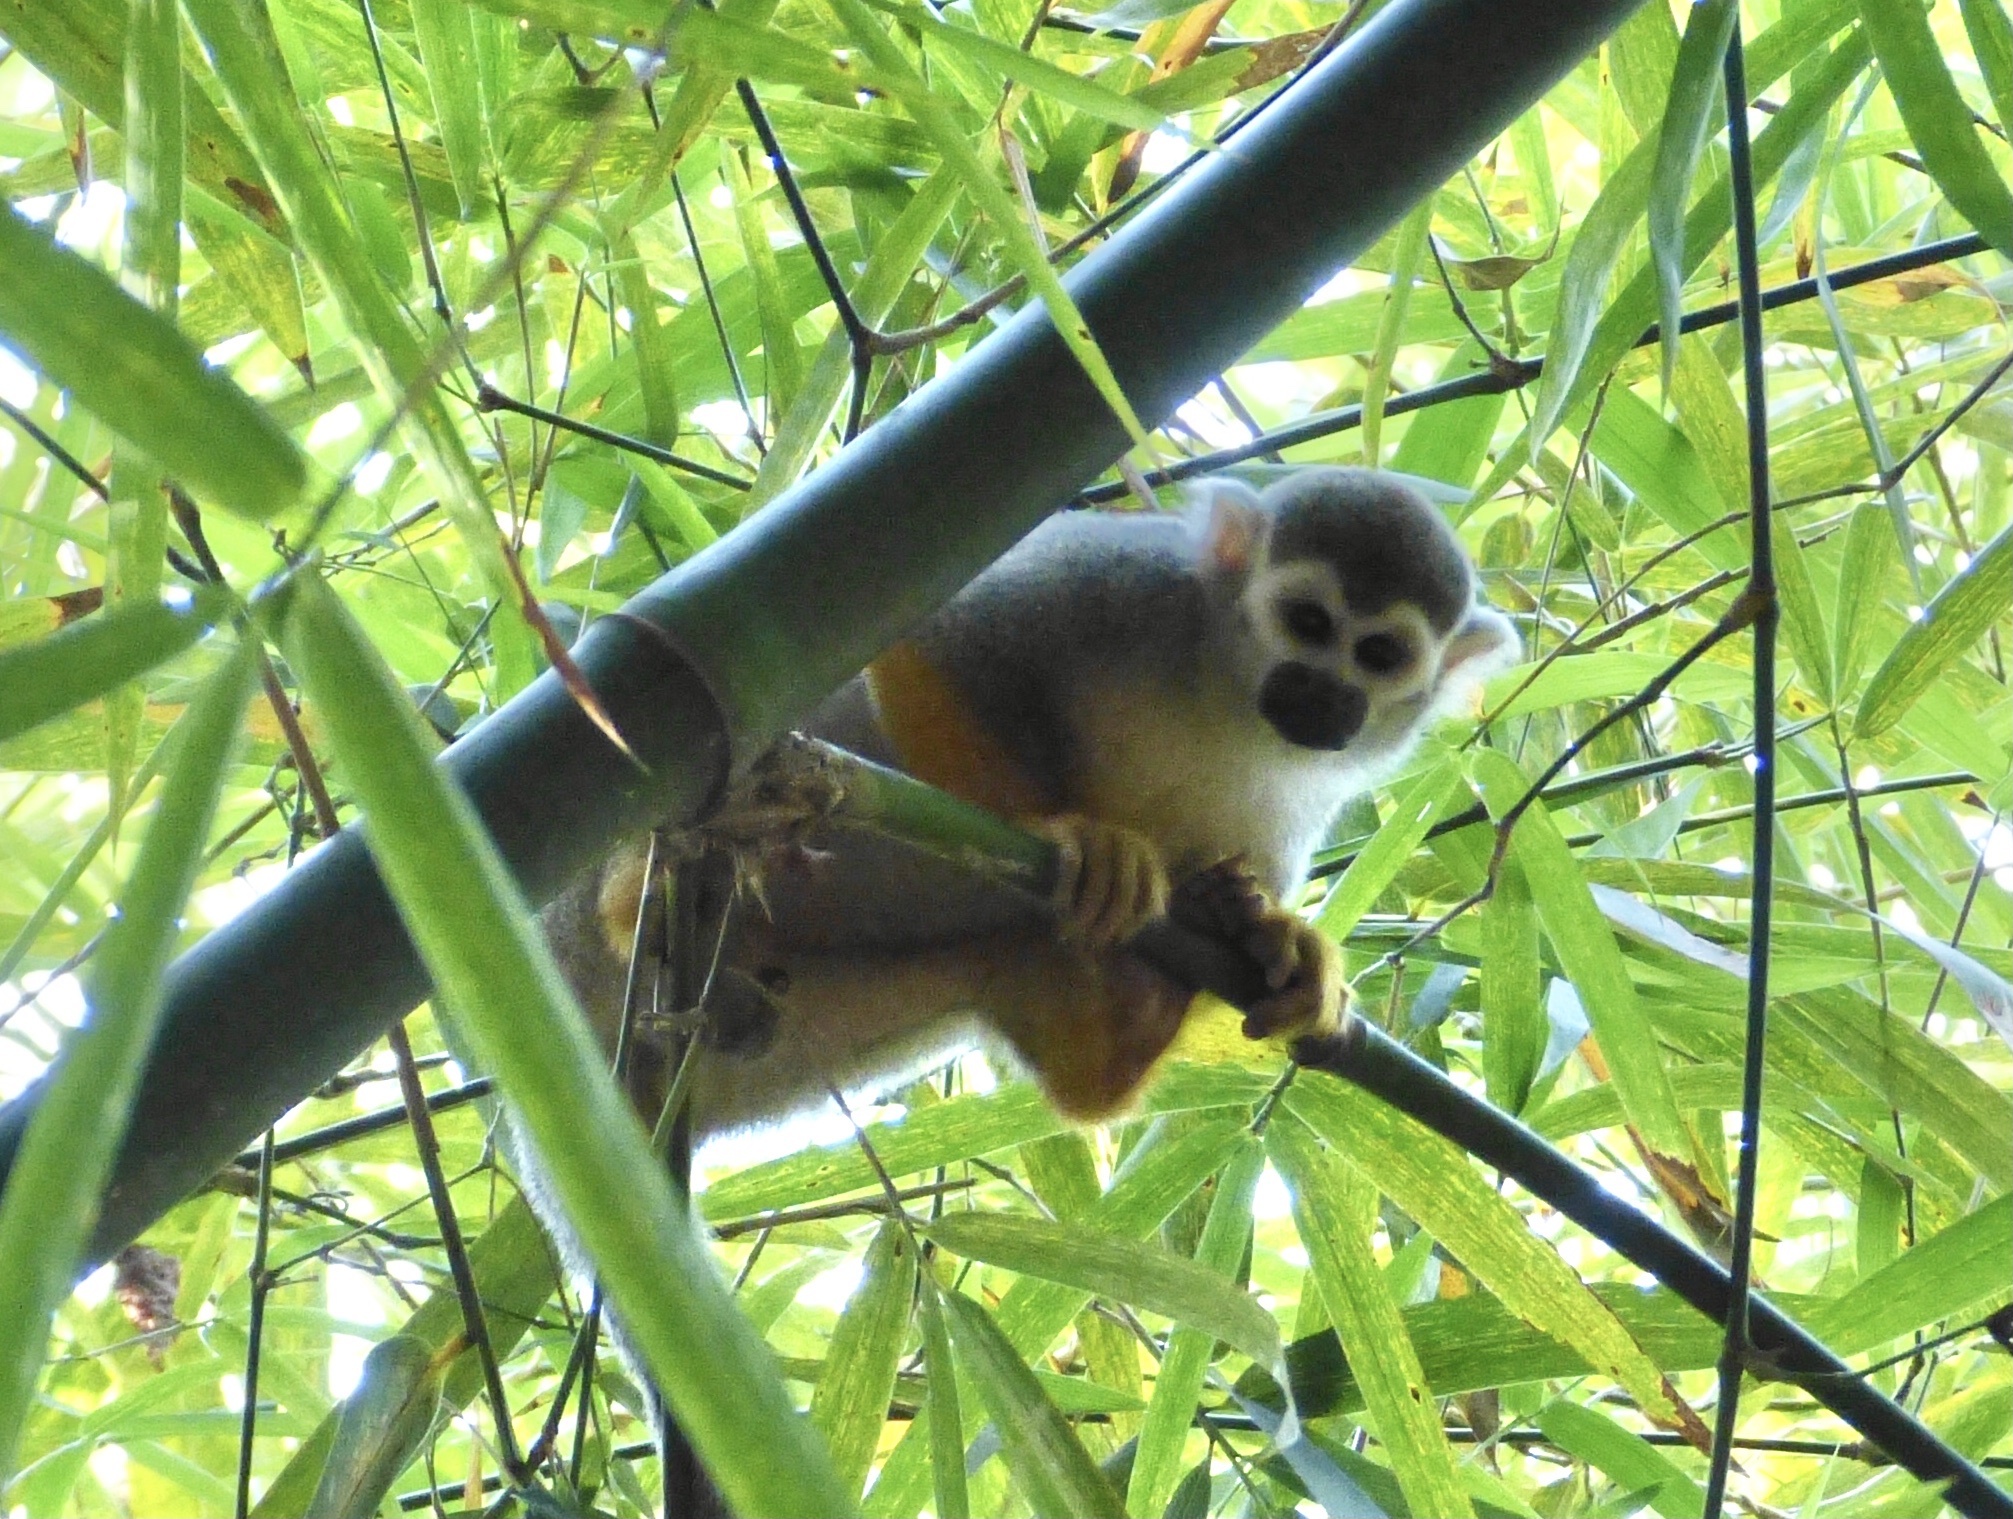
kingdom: Animalia
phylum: Chordata
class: Mammalia
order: Primates
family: Cebidae
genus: Saimiri
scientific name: Saimiri sciureus
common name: Common squirrel monkey
